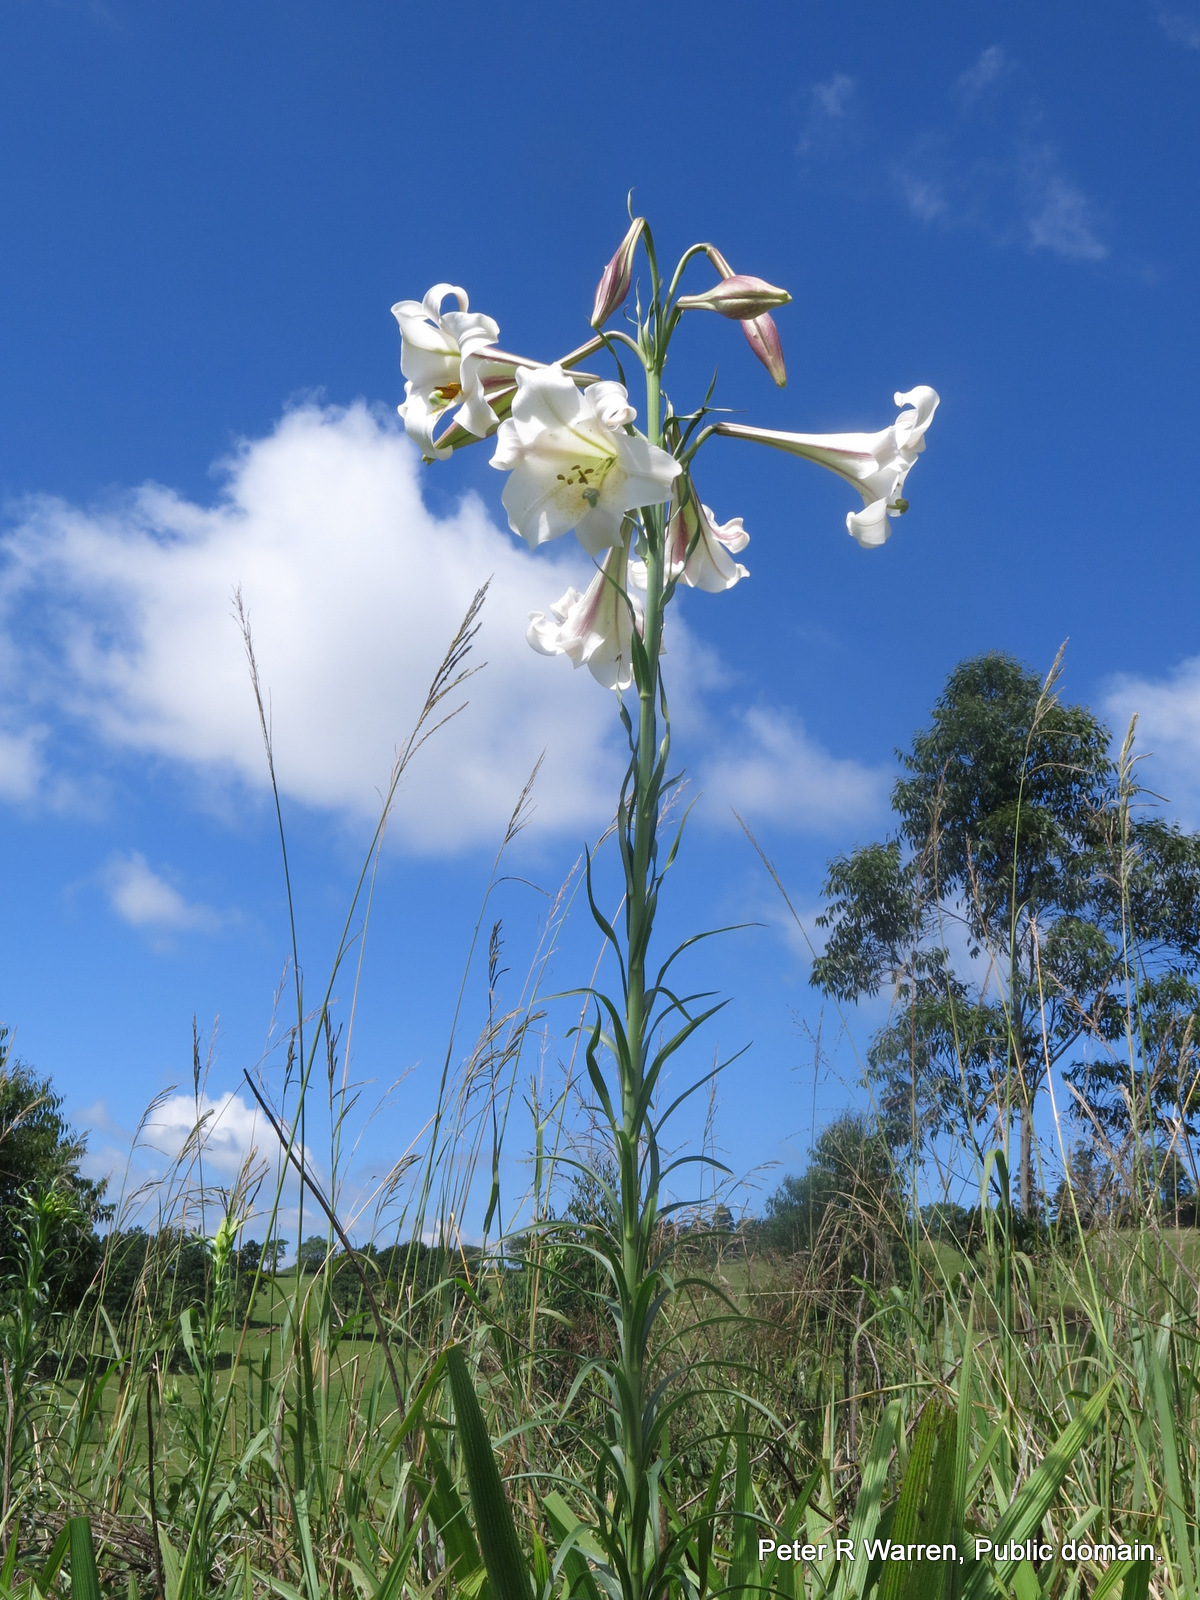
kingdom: Plantae
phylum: Tracheophyta
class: Liliopsida
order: Liliales
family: Liliaceae
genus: Lilium
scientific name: Lilium formosanum
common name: Formosa lily
